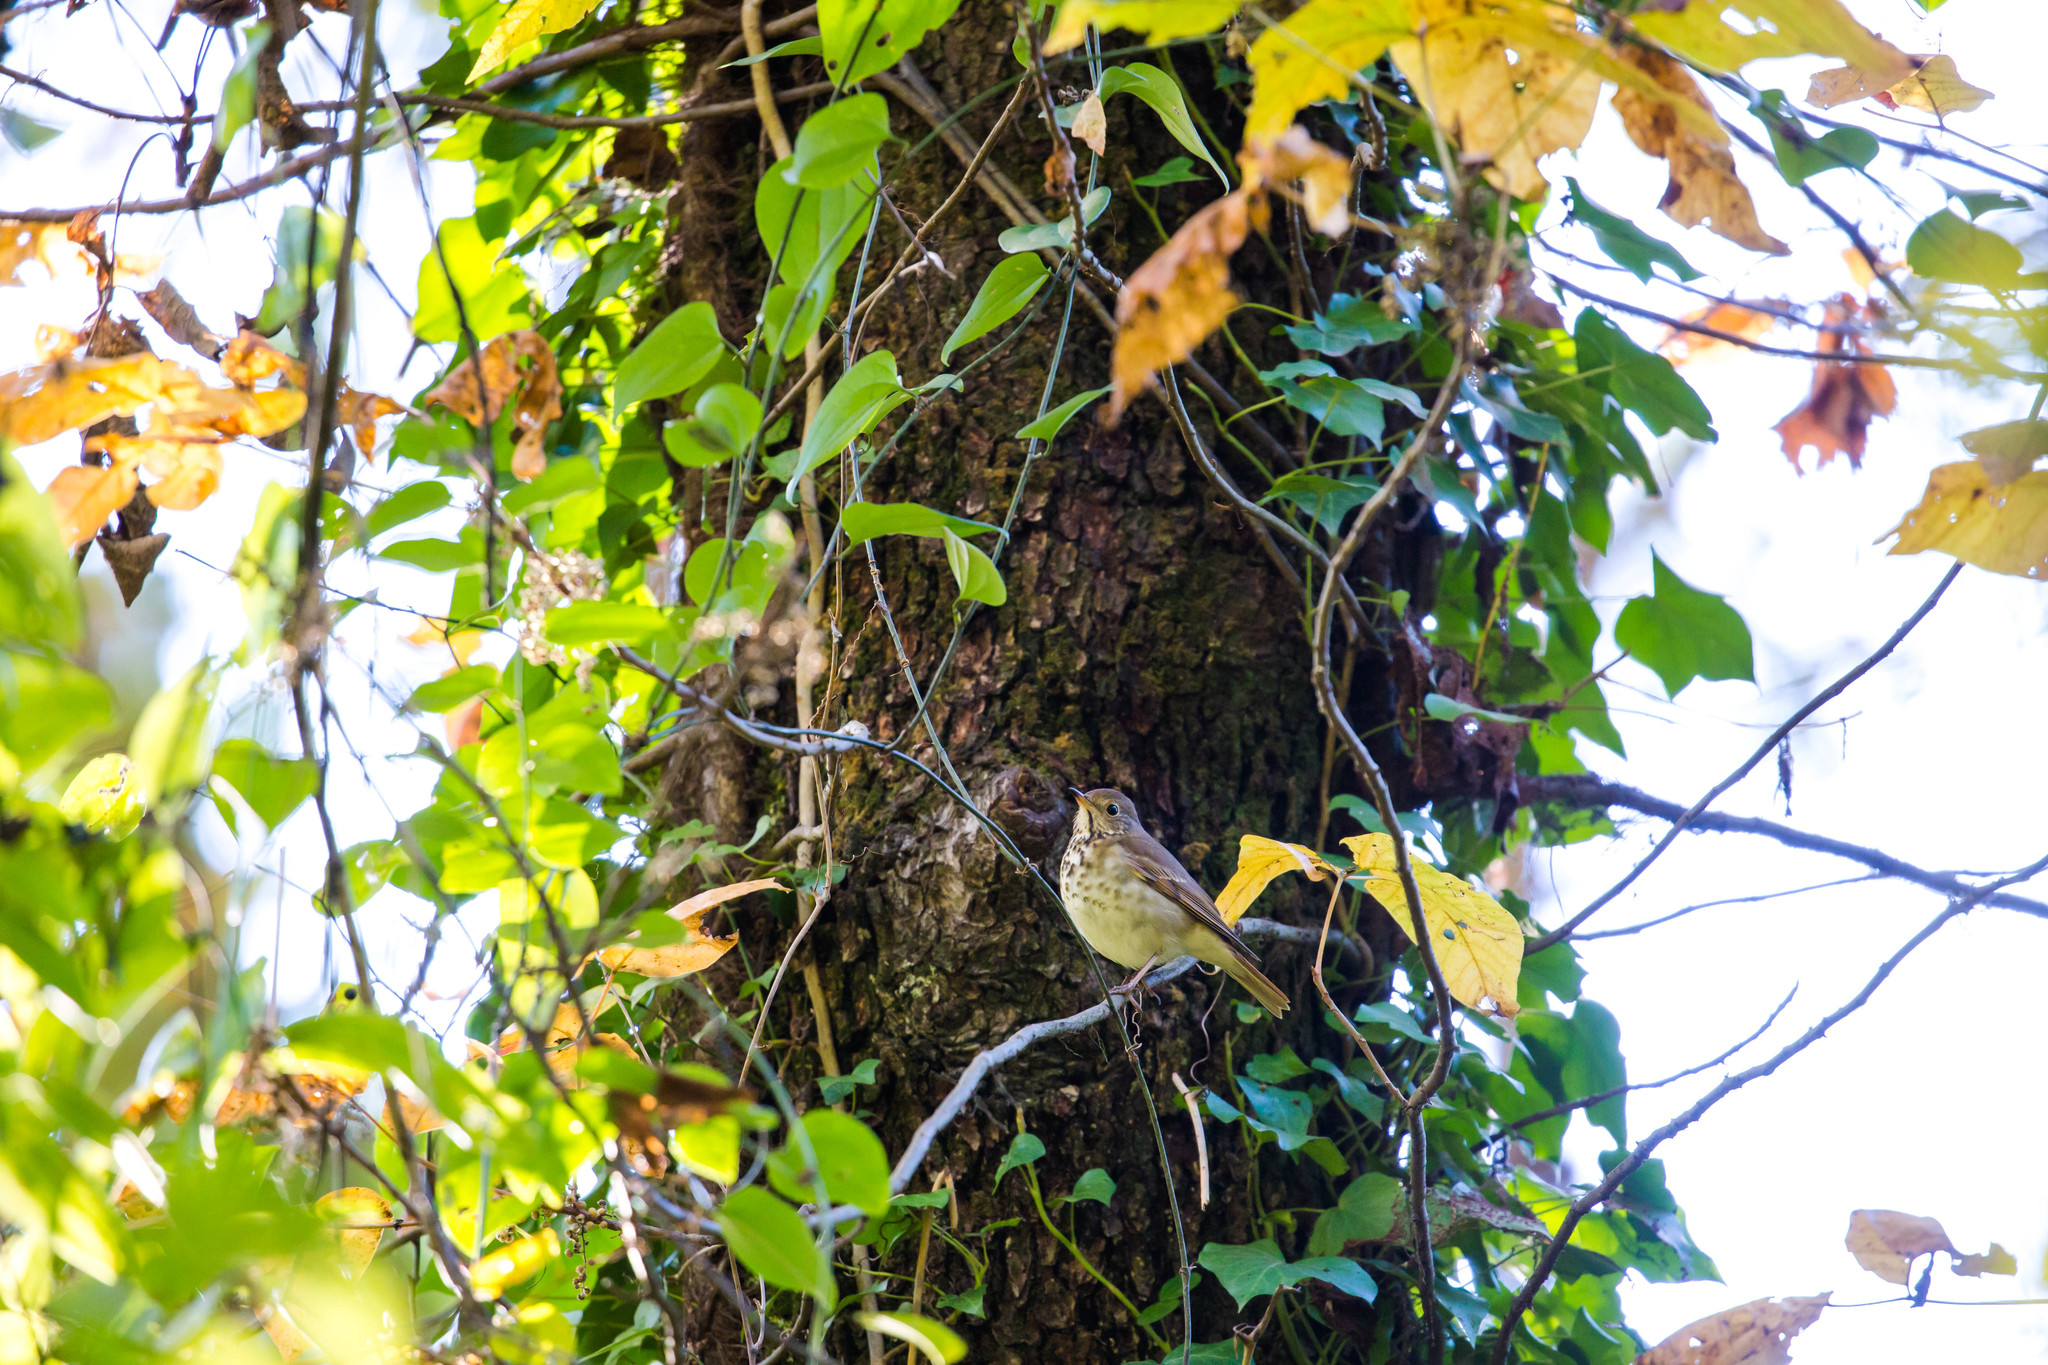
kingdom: Animalia
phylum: Chordata
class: Aves
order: Passeriformes
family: Turdidae
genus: Catharus
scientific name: Catharus guttatus
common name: Hermit thrush
